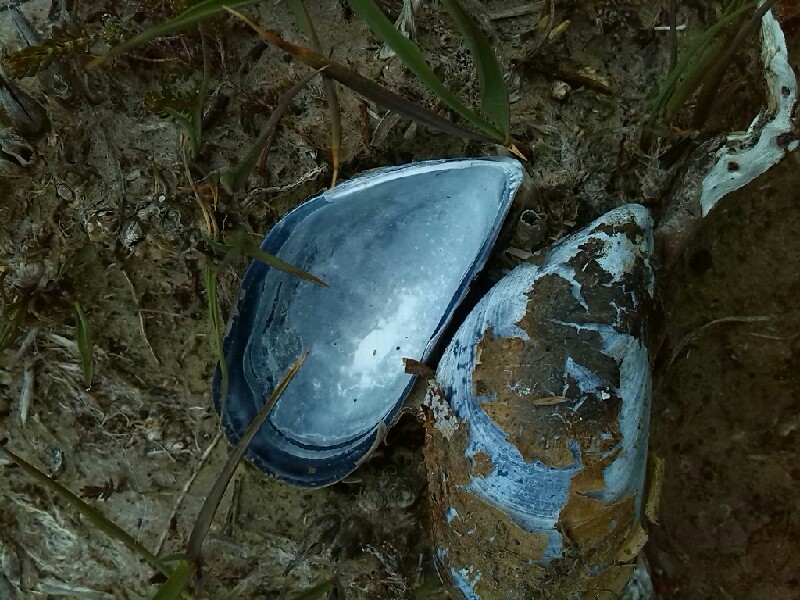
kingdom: Animalia
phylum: Mollusca
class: Bivalvia
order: Mytilida
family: Mytilidae
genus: Mytilus
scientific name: Mytilus edulis
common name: Blue mussel
